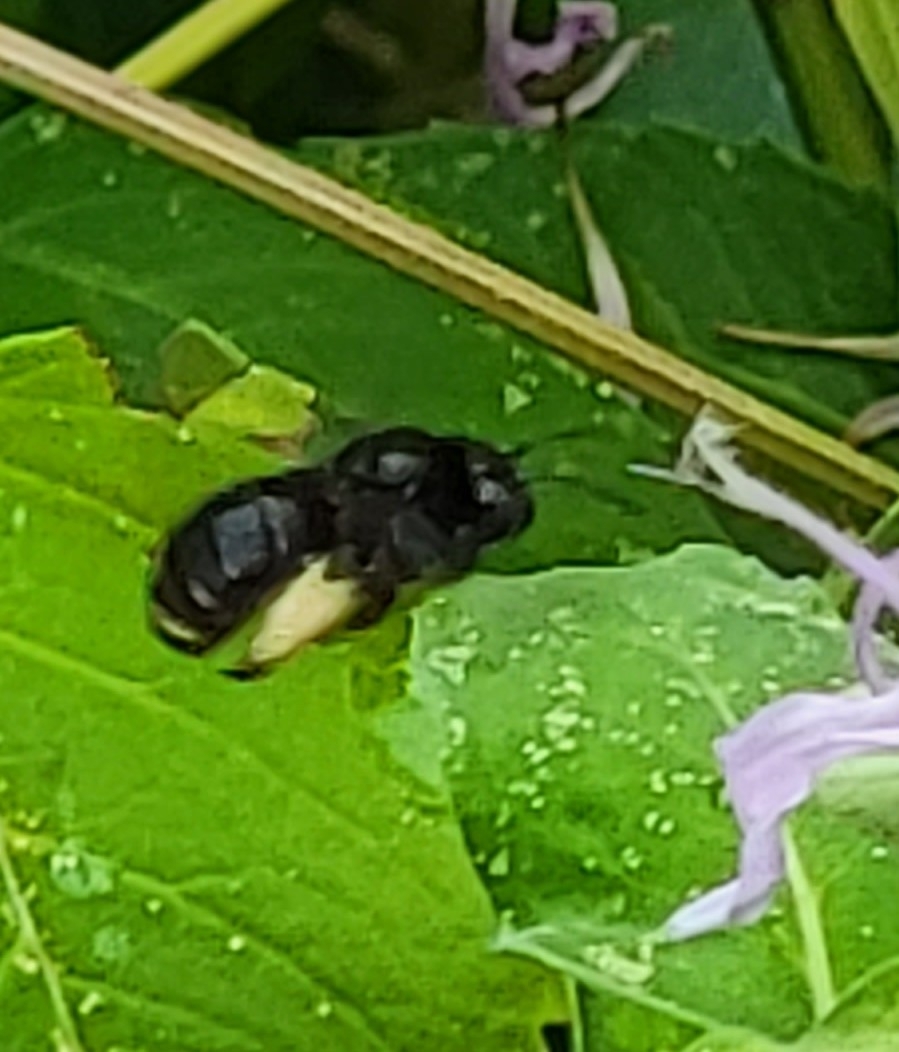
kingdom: Animalia
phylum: Arthropoda
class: Insecta
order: Hymenoptera
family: Apidae
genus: Melissodes
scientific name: Melissodes bimaculatus
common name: Two-spotted long-horned bee
